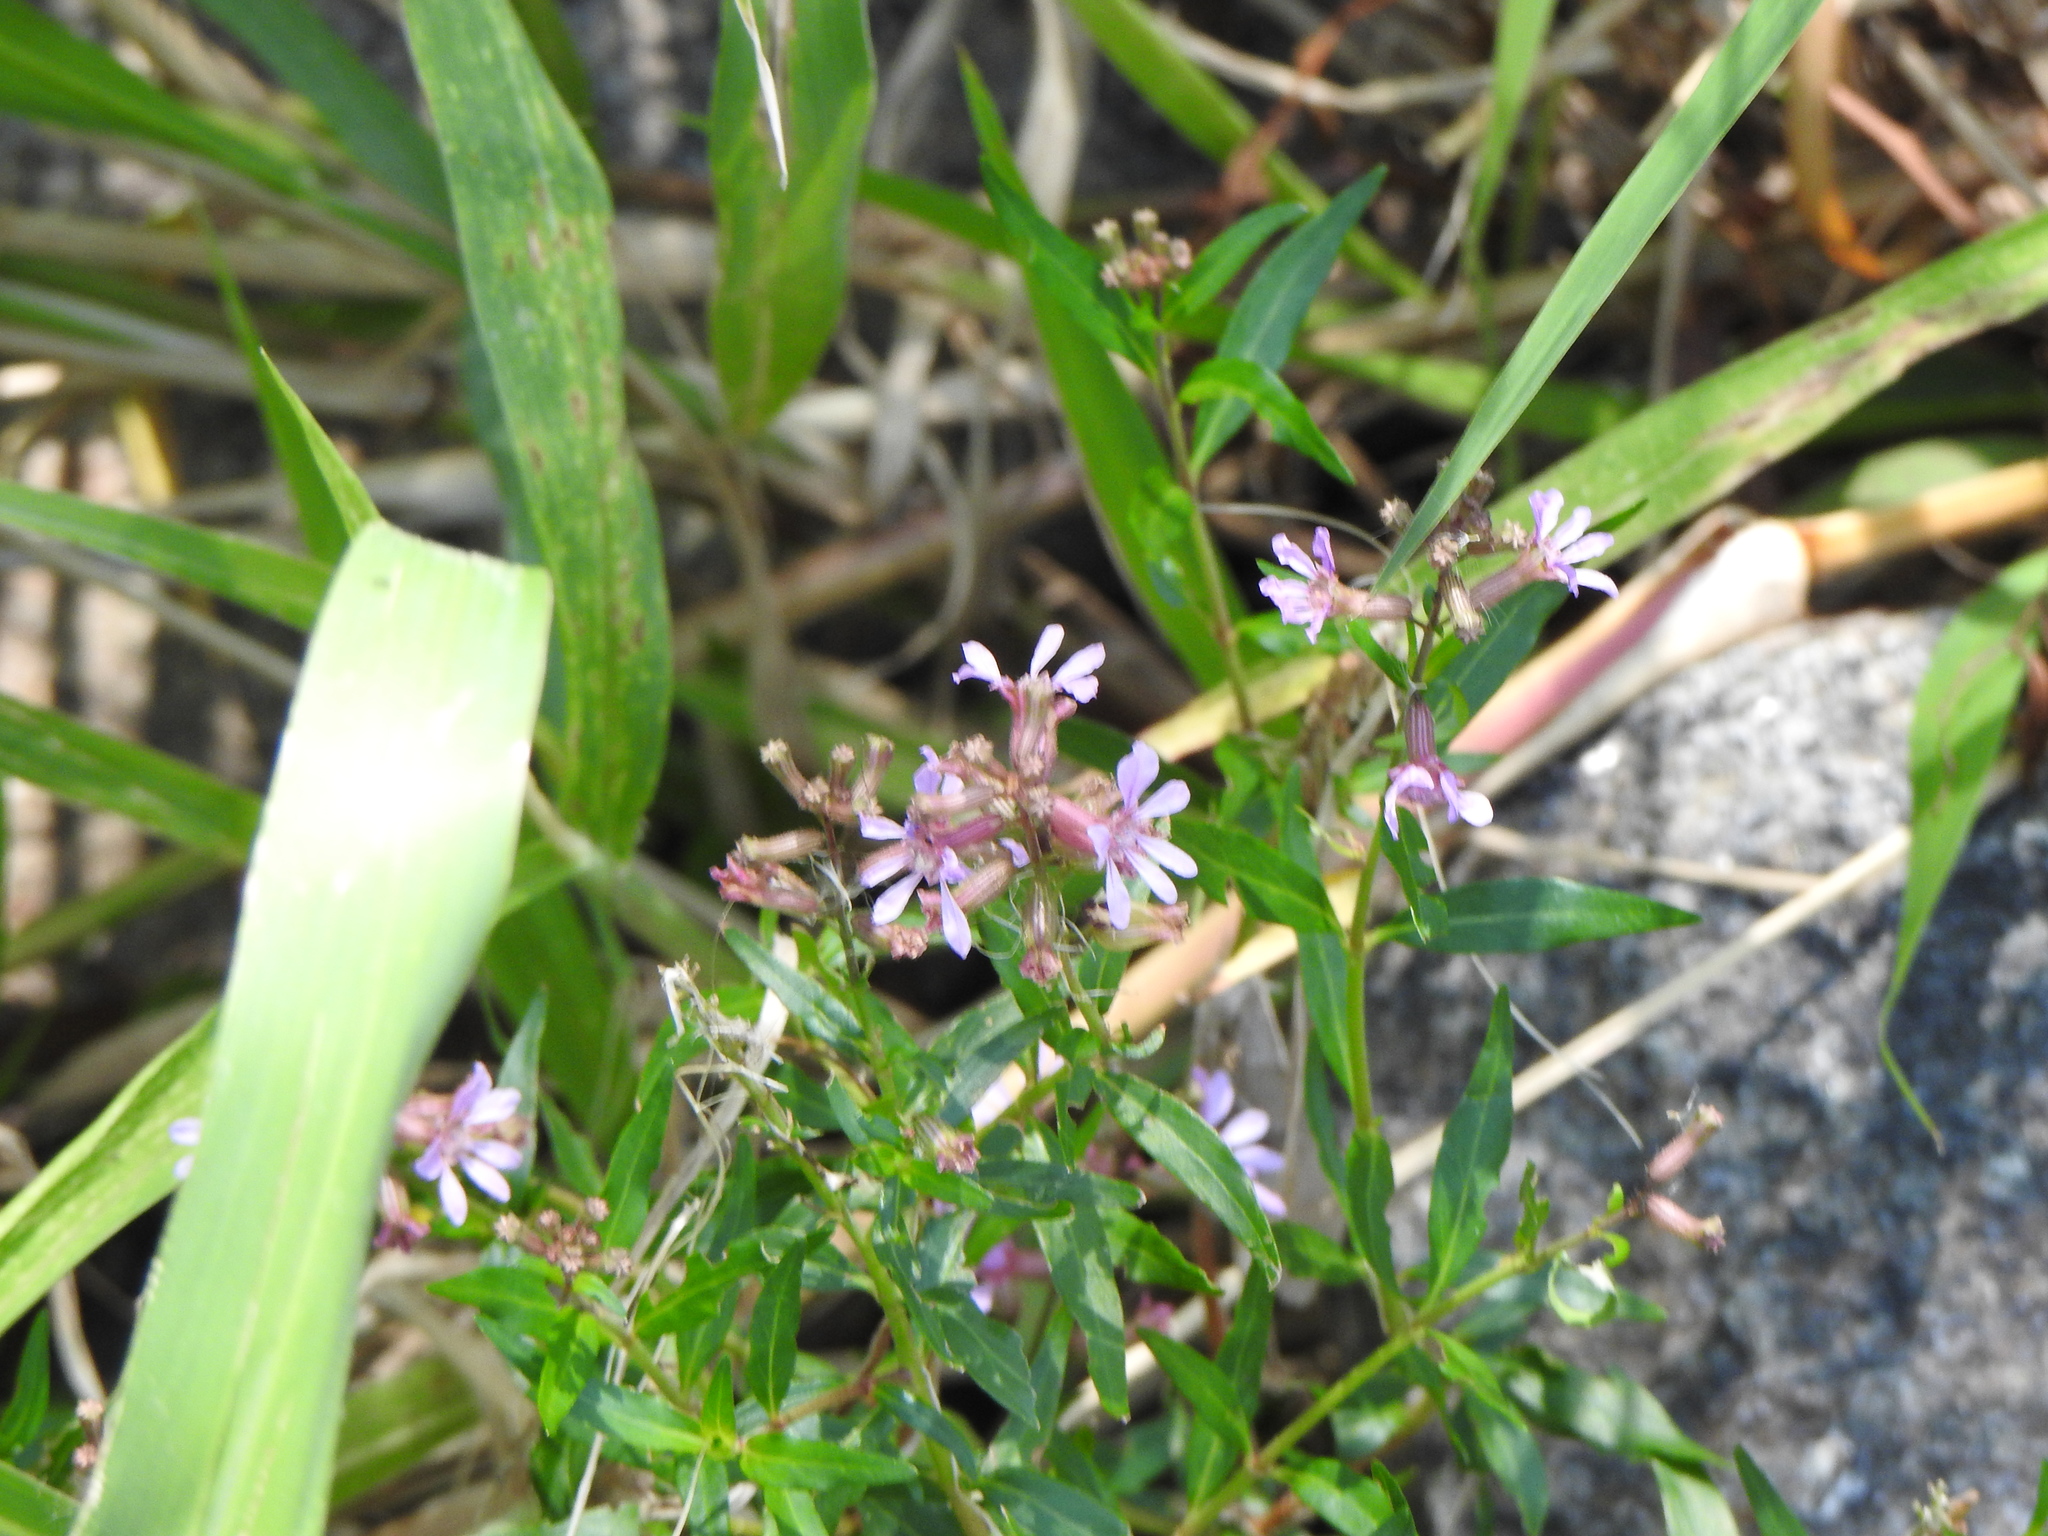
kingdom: Plantae
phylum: Tracheophyta
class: Magnoliopsida
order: Myrtales
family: Lythraceae
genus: Cuphea
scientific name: Cuphea fruticosa
